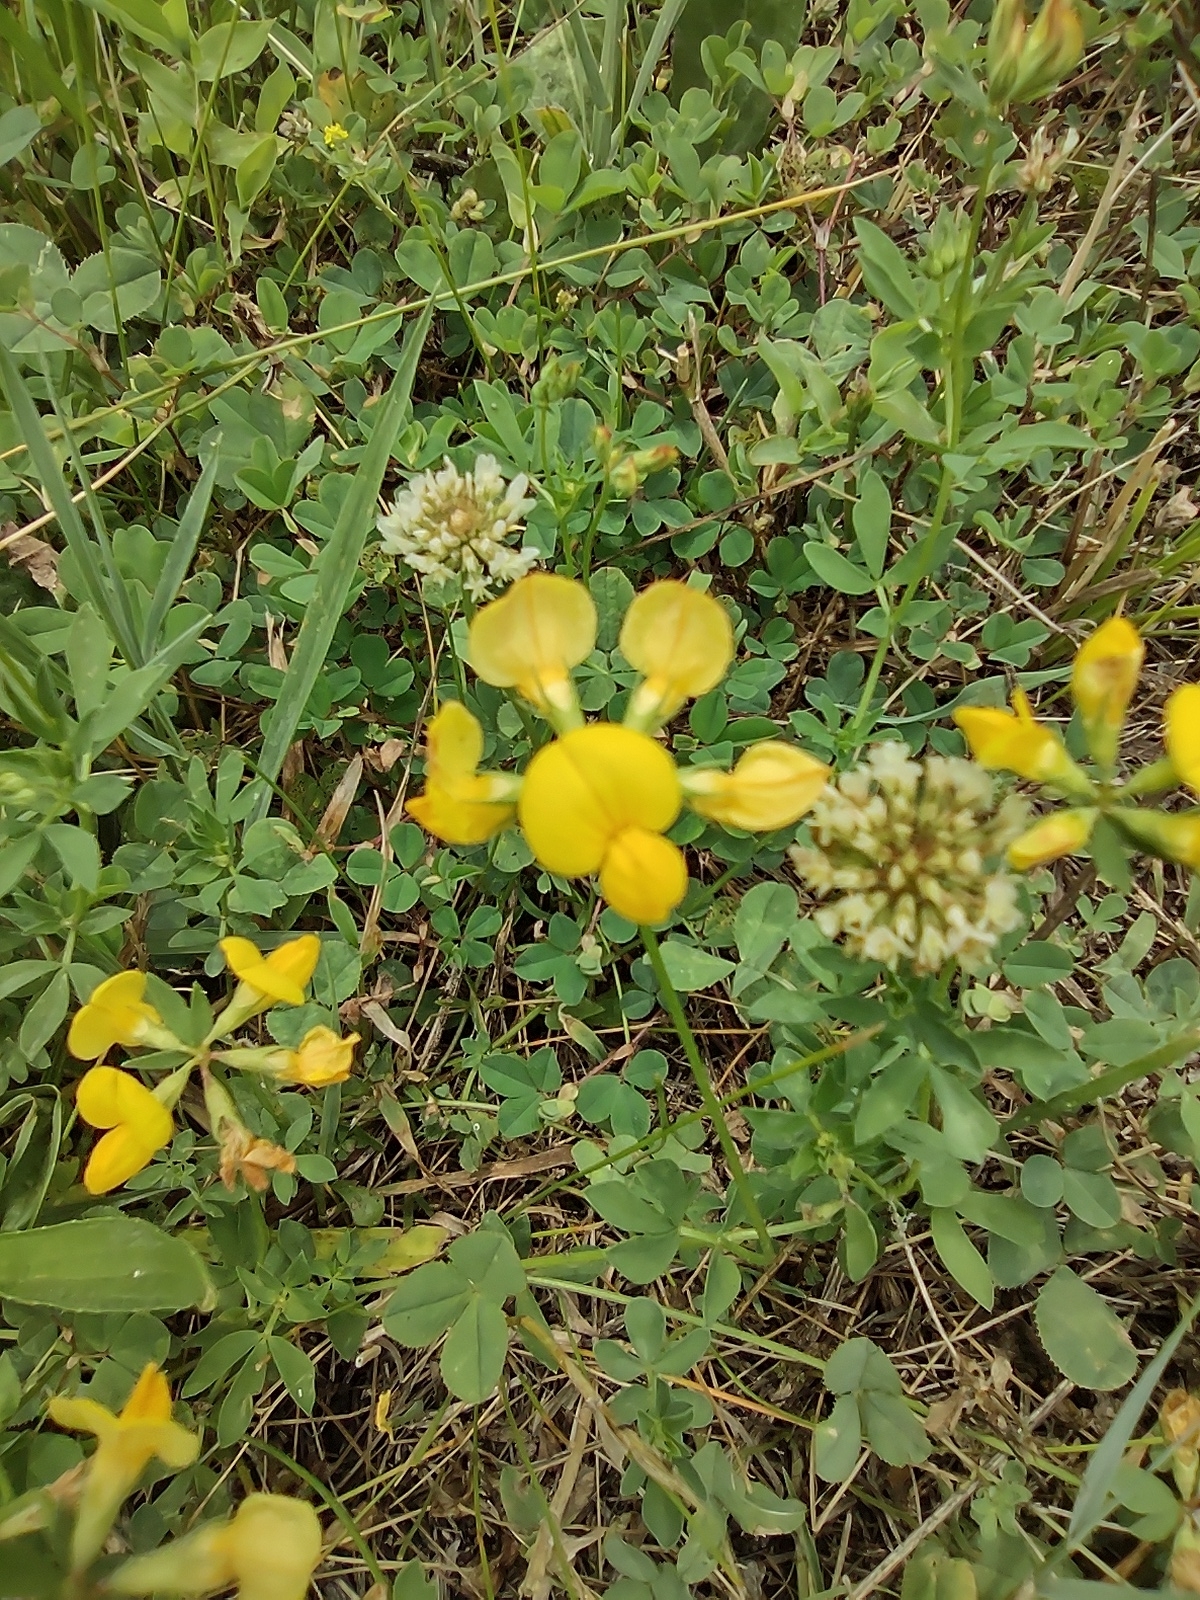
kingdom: Plantae
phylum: Tracheophyta
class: Magnoliopsida
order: Fabales
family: Fabaceae
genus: Lotus
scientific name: Lotus corniculatus
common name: Common bird's-foot-trefoil
